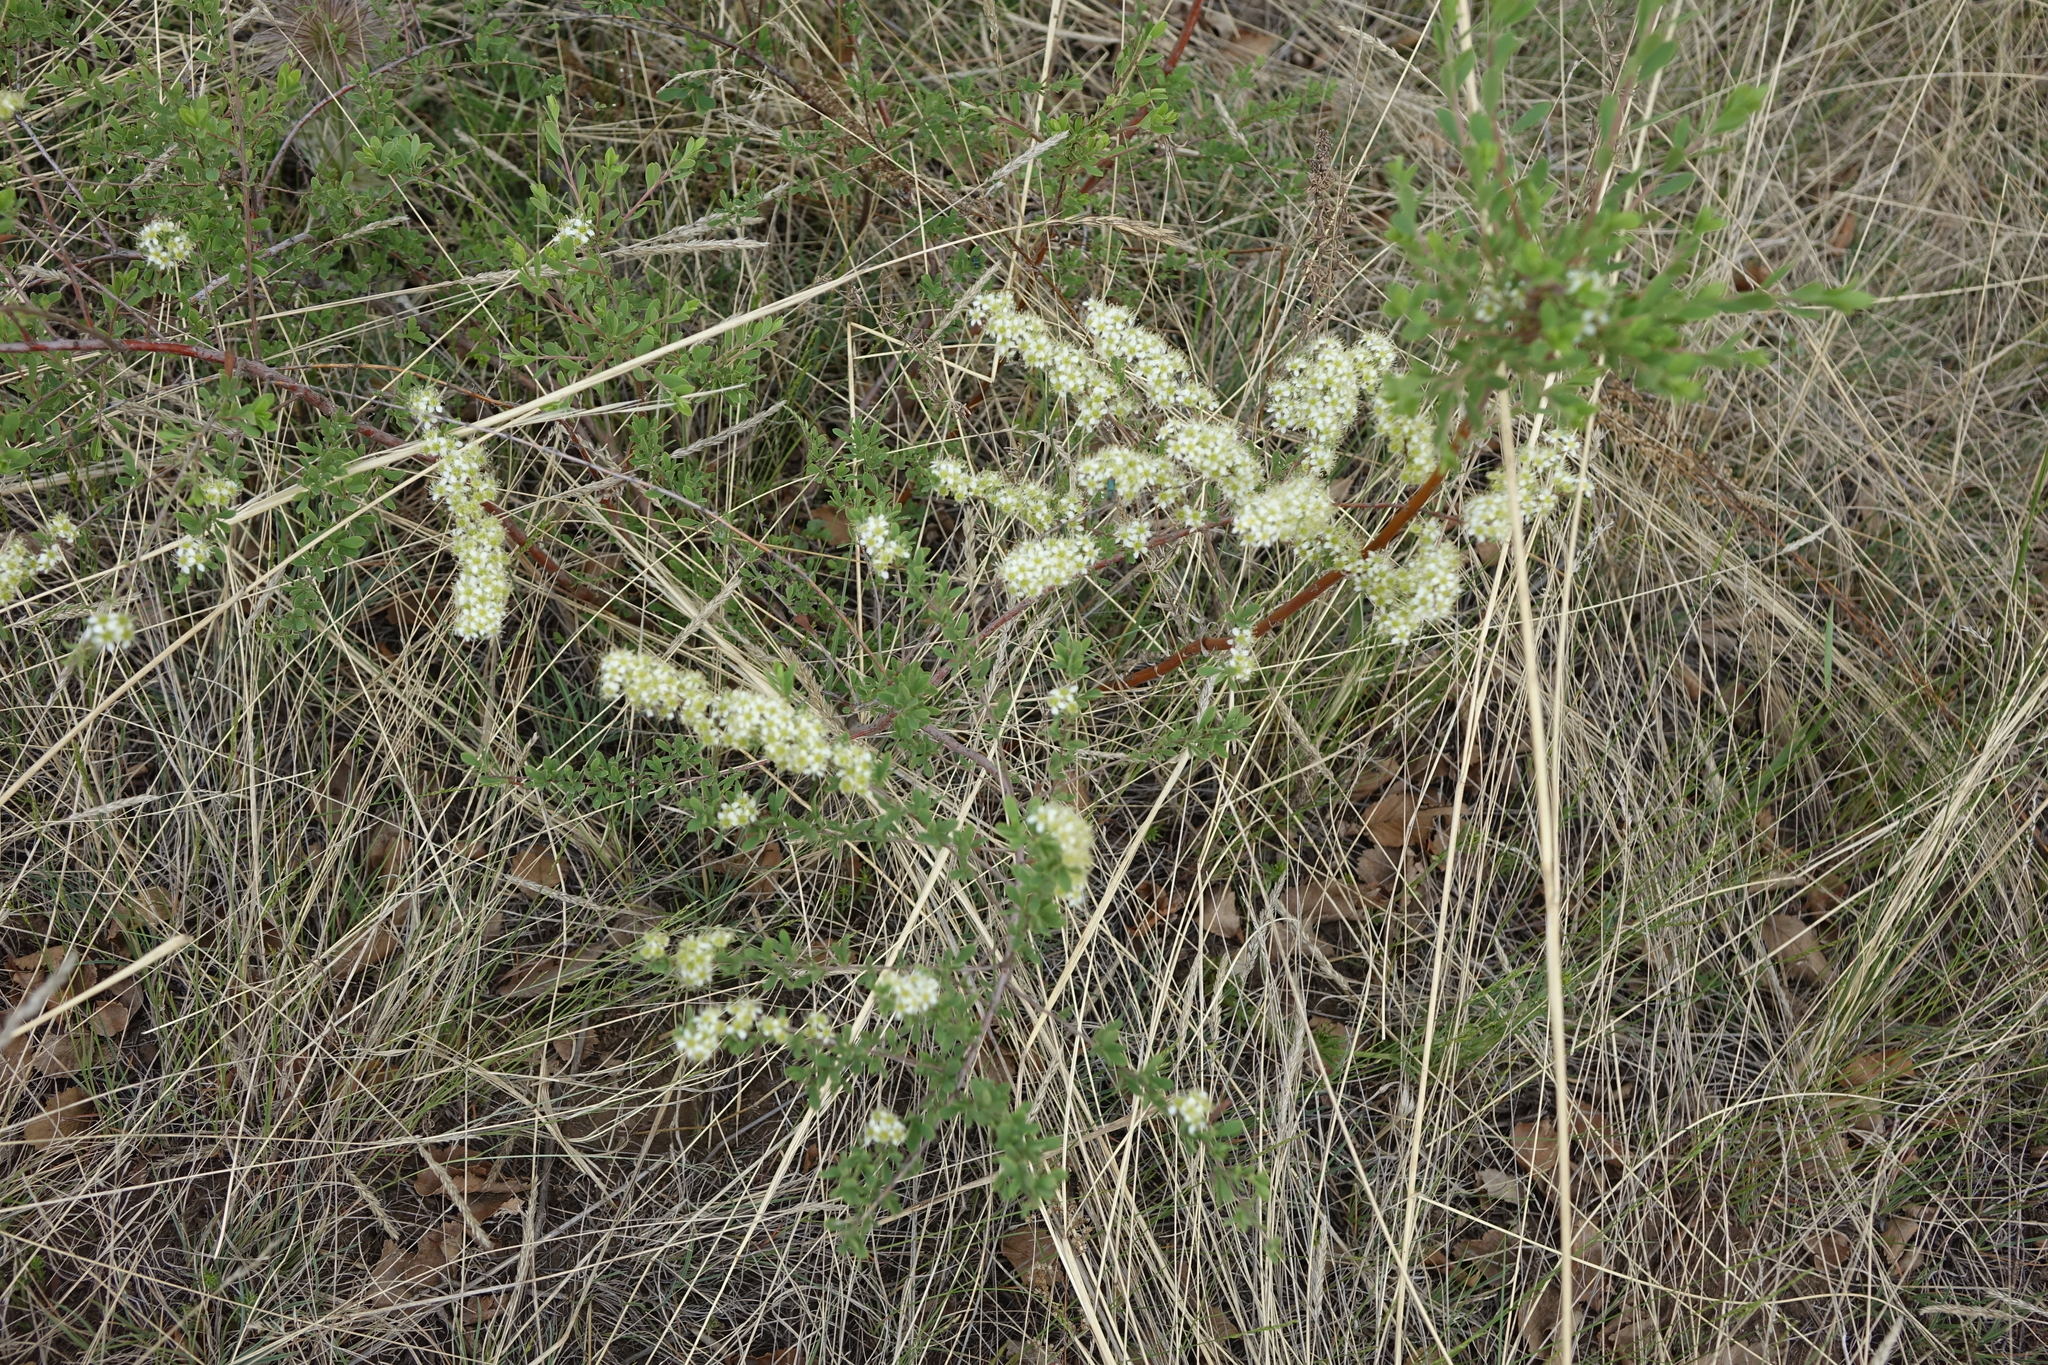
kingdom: Plantae
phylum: Tracheophyta
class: Magnoliopsida
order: Rosales
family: Rosaceae
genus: Spiraea
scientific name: Spiraea hypericifolia
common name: Iberian spirea
